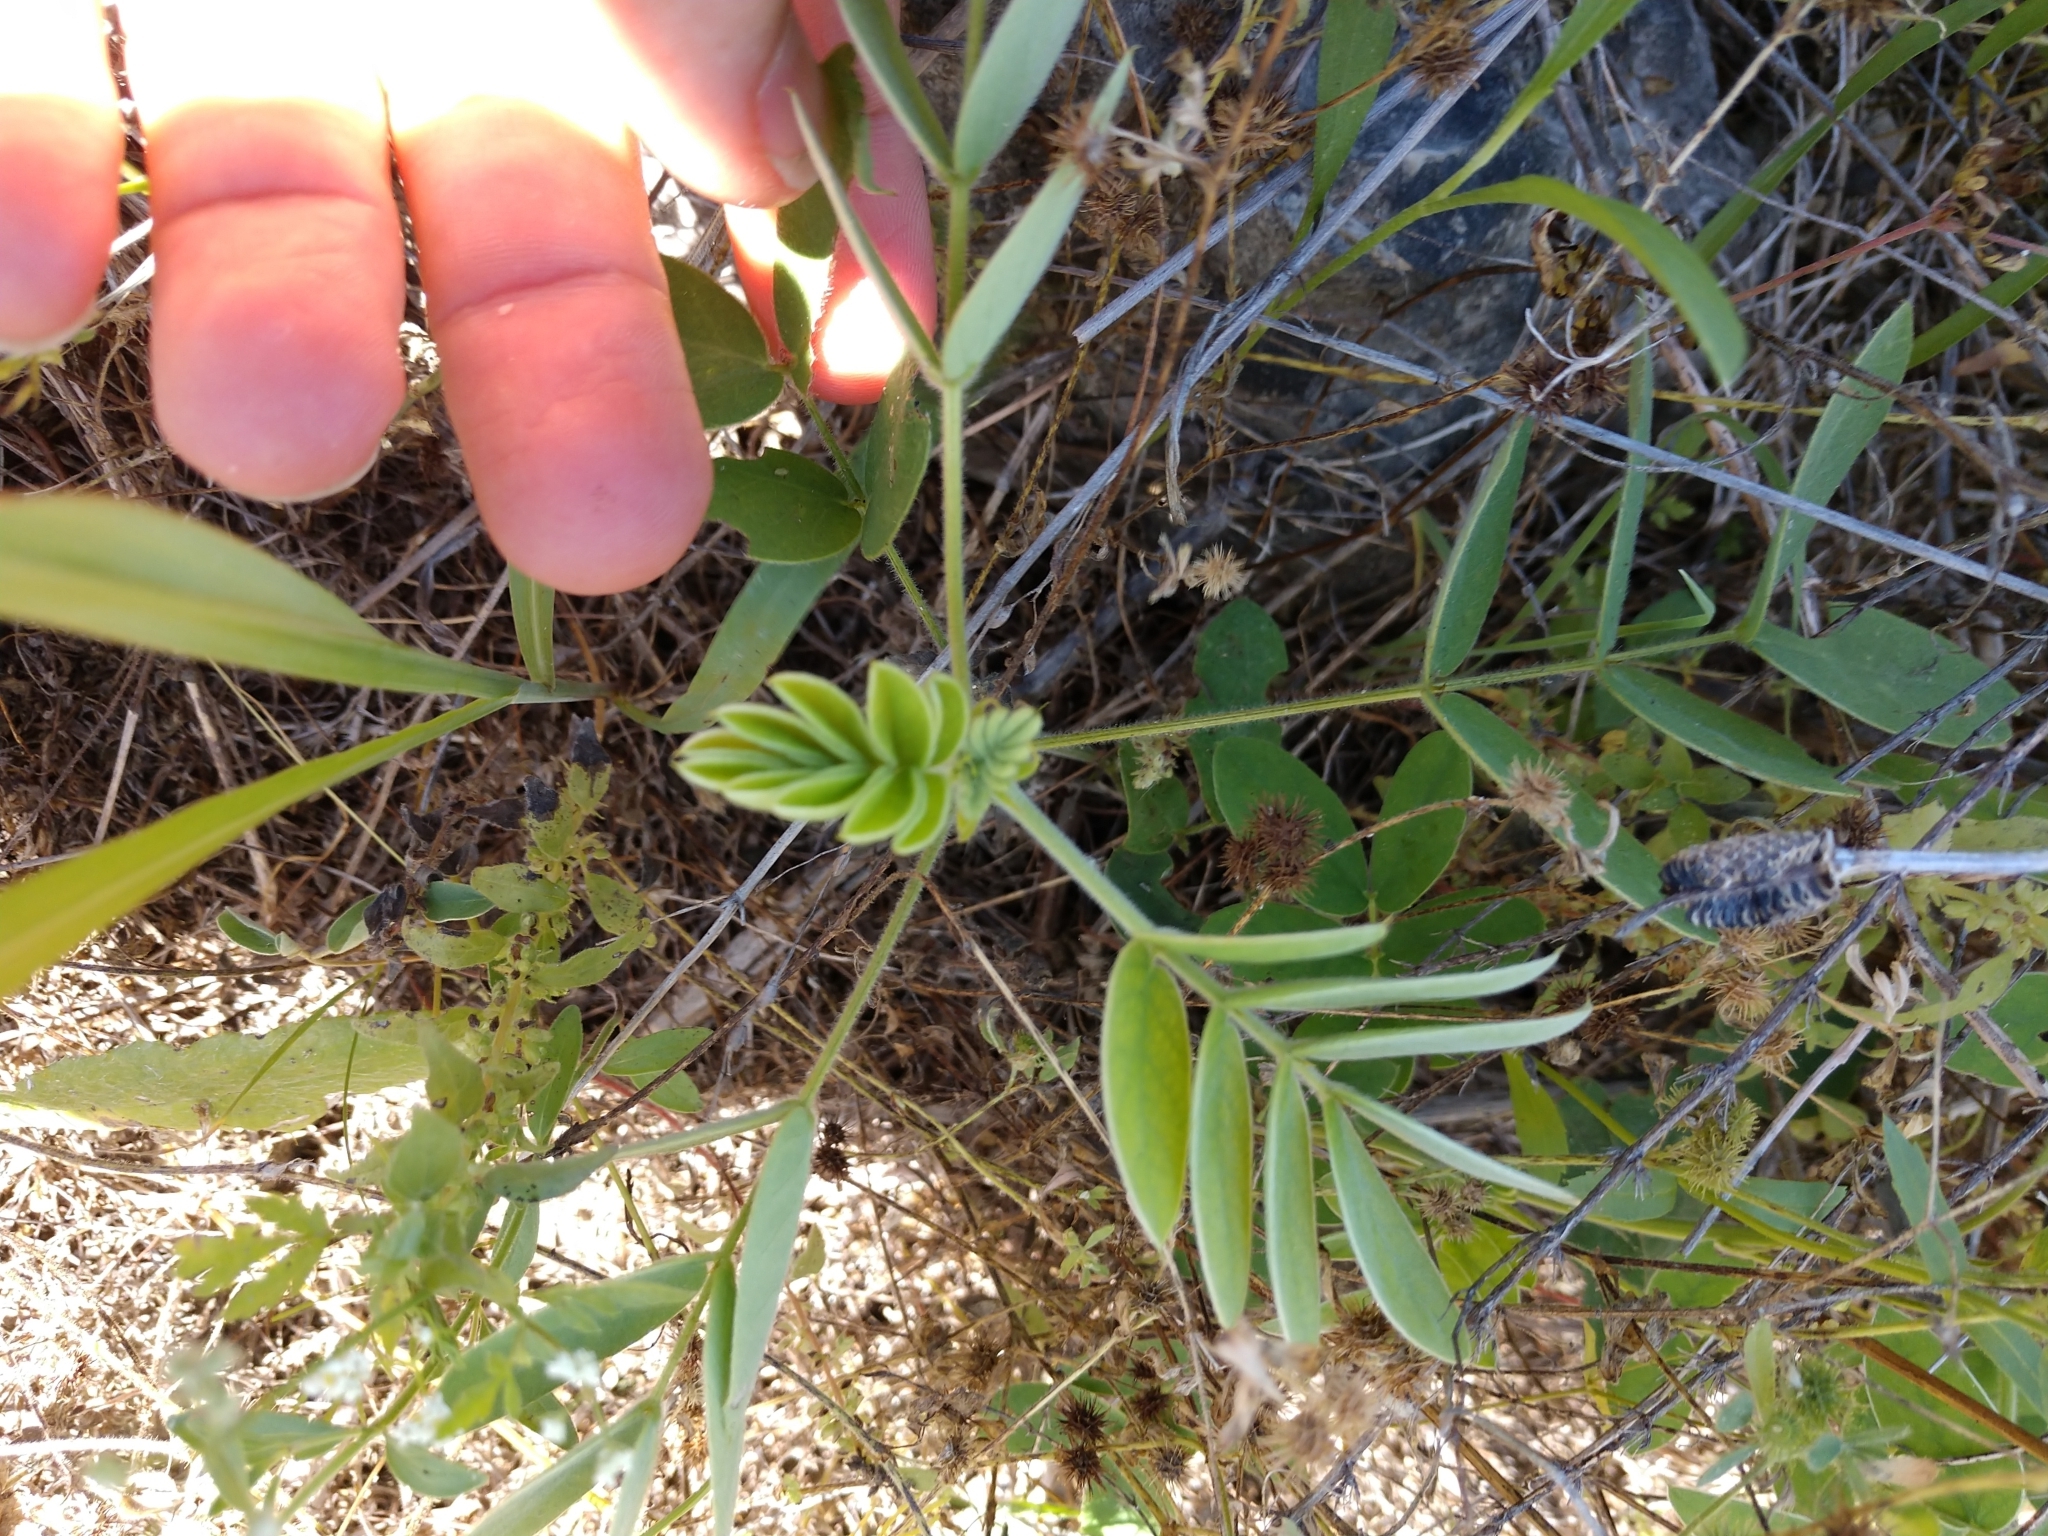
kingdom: Plantae
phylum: Tracheophyta
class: Magnoliopsida
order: Fabales
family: Fabaceae
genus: Senna
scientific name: Senna lindheimeriana
